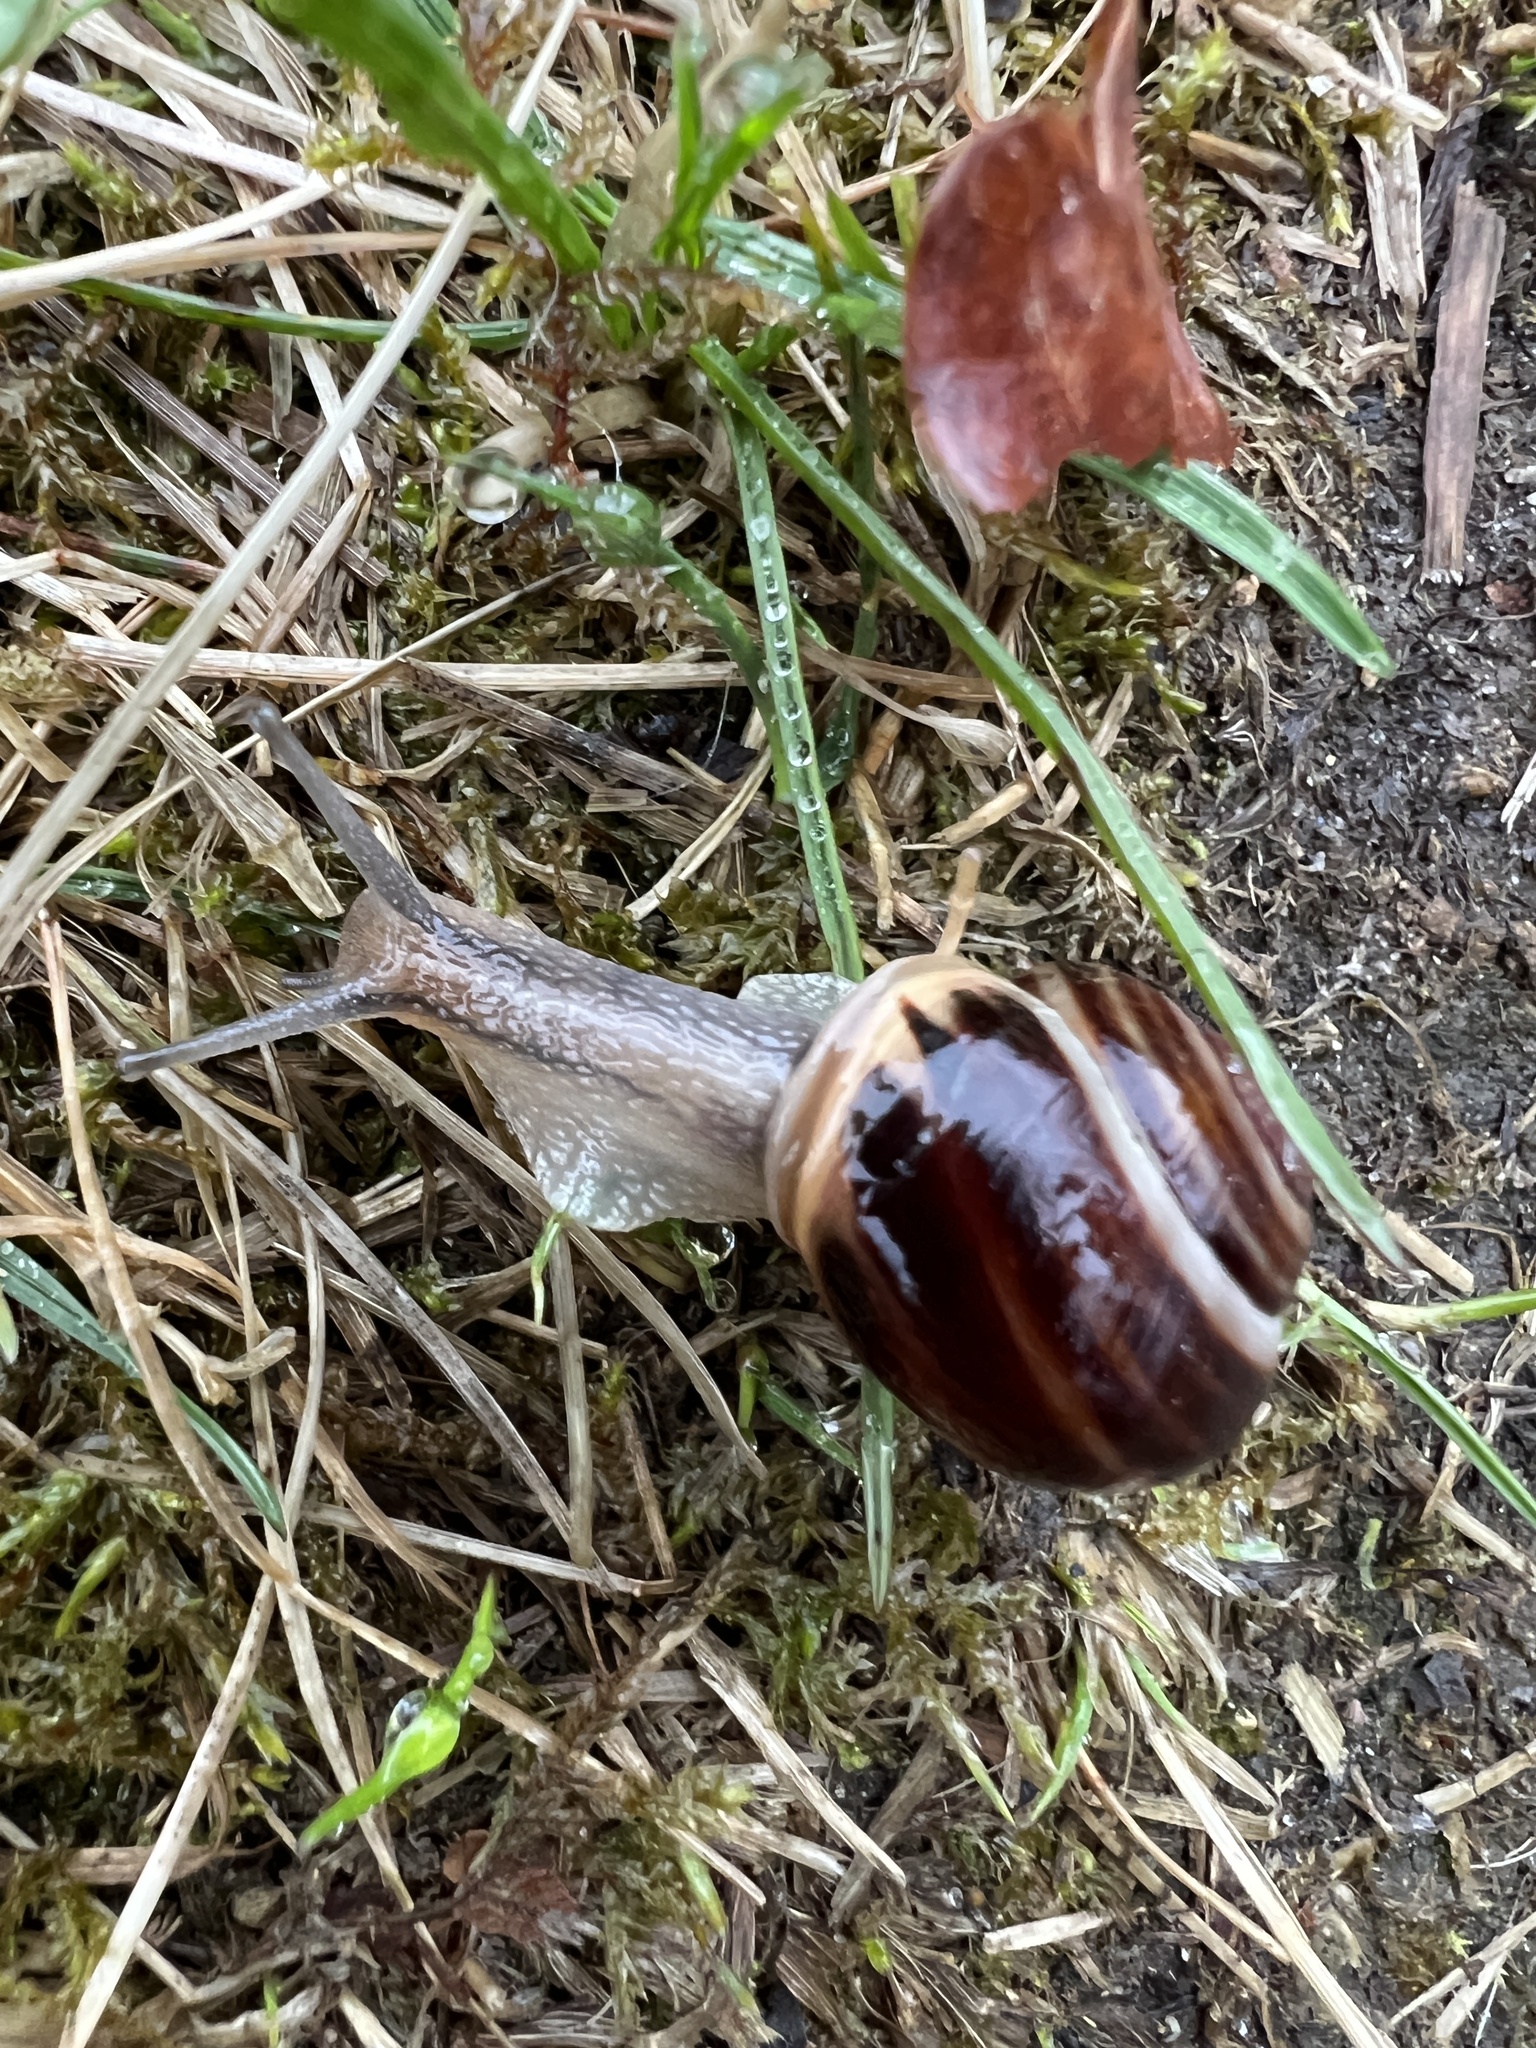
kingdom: Animalia
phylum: Mollusca
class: Gastropoda
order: Stylommatophora
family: Helicidae
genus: Cepaea
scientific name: Cepaea hortensis
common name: White-lip gardensnail
